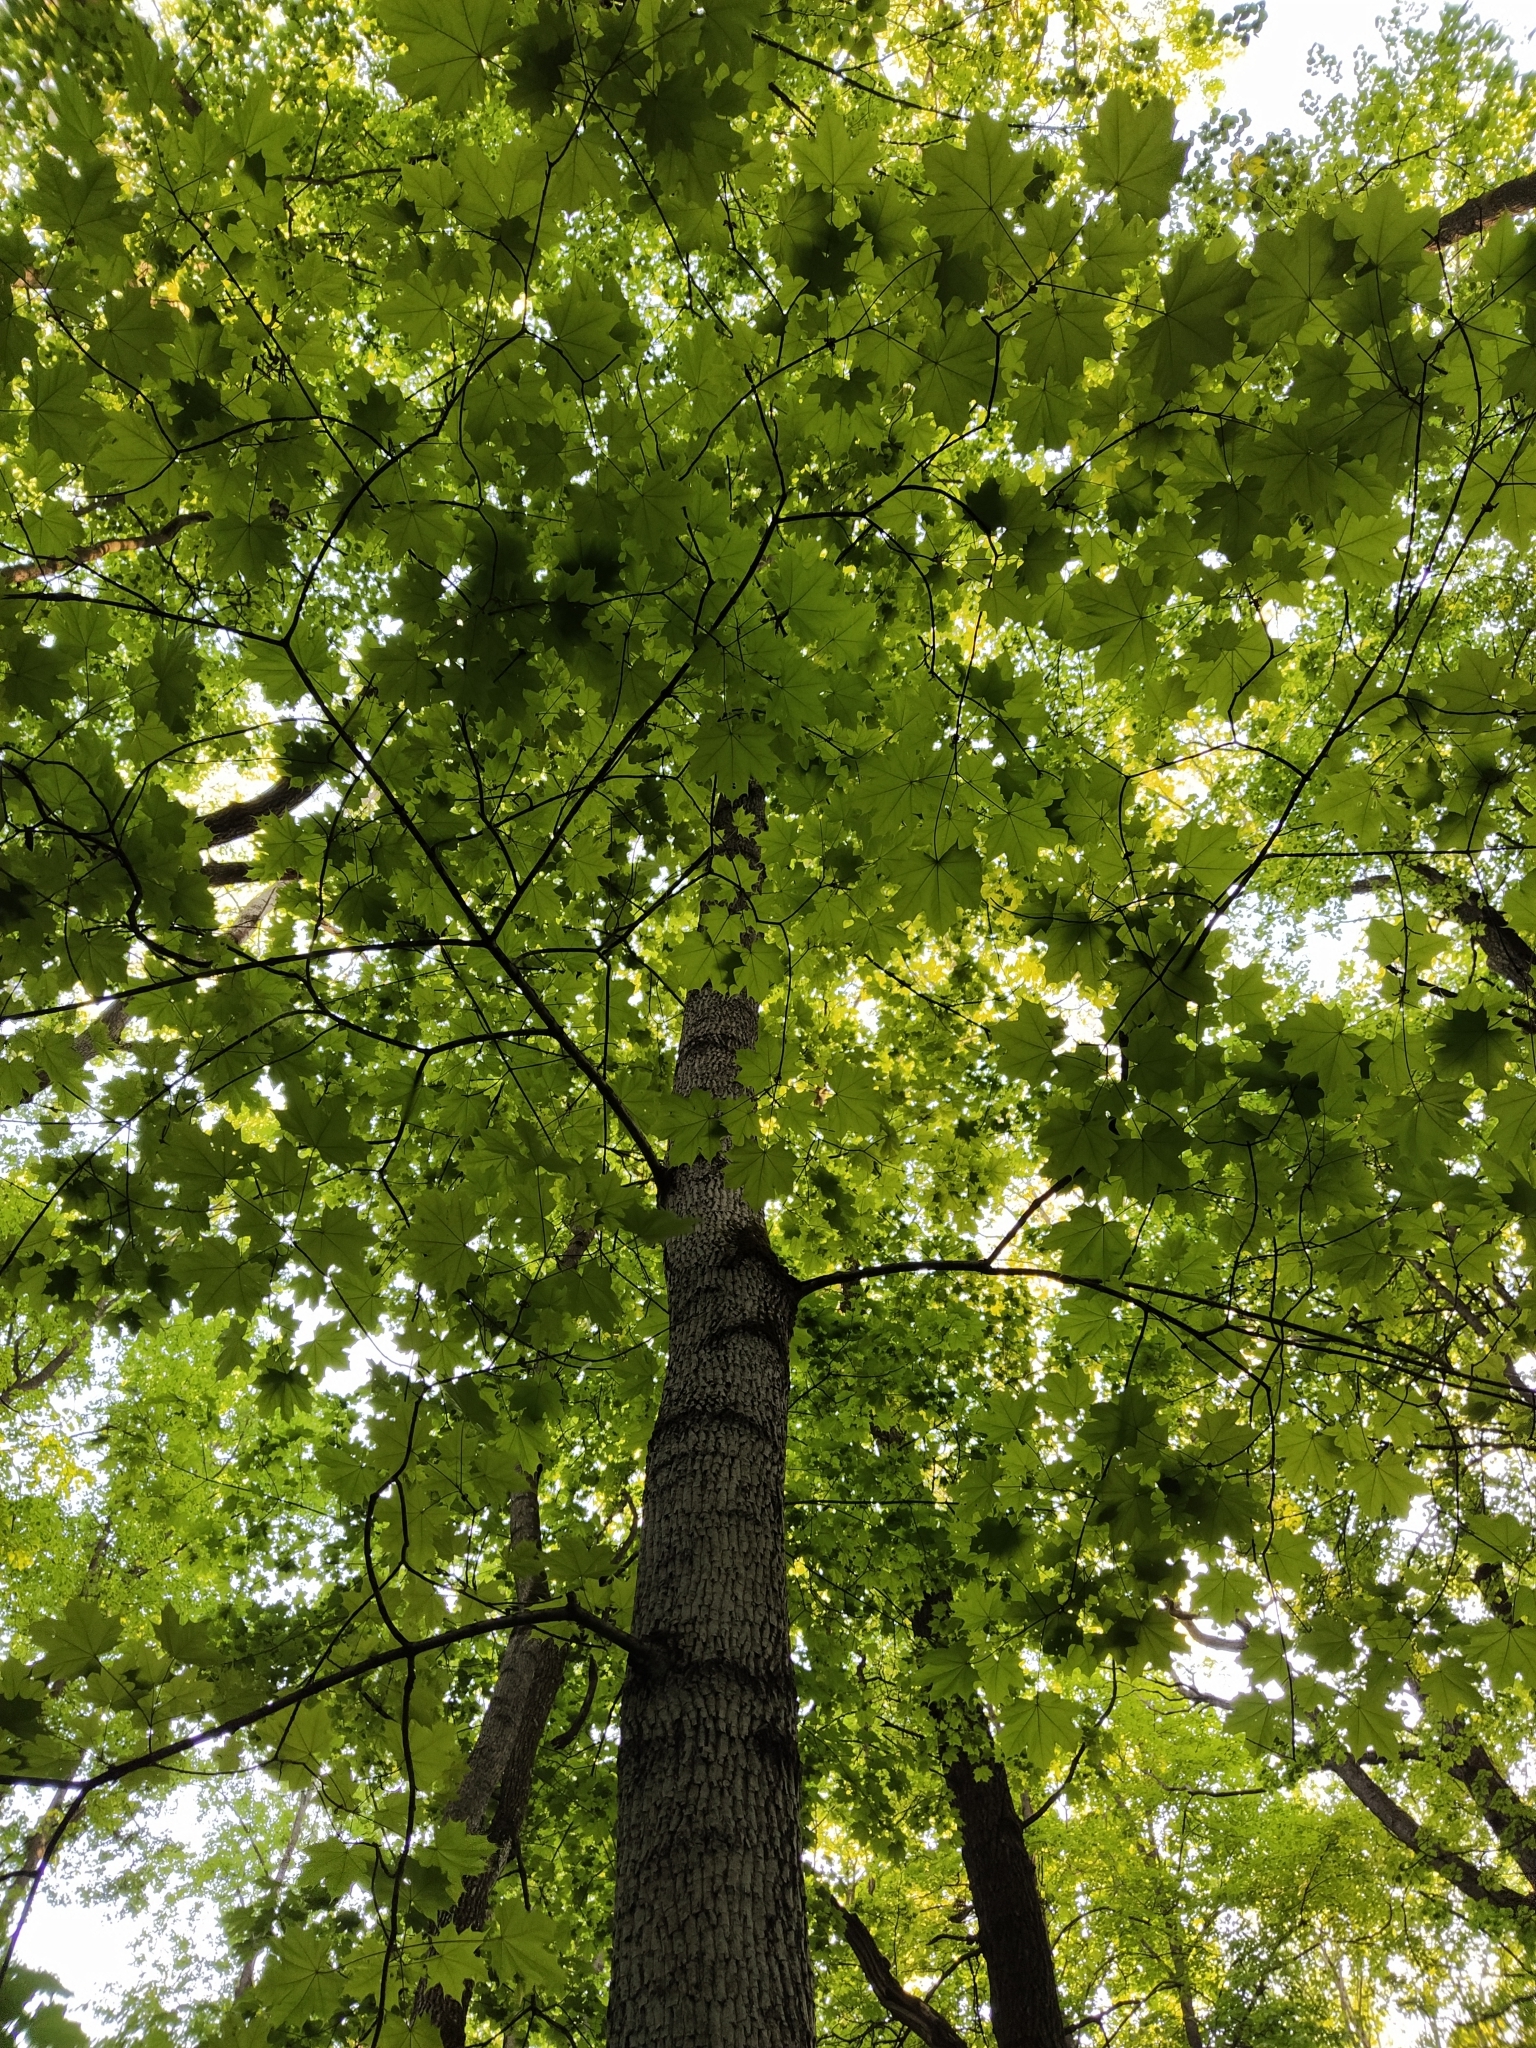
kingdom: Plantae
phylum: Tracheophyta
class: Magnoliopsida
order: Sapindales
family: Sapindaceae
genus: Acer
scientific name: Acer platanoides
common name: Norway maple
